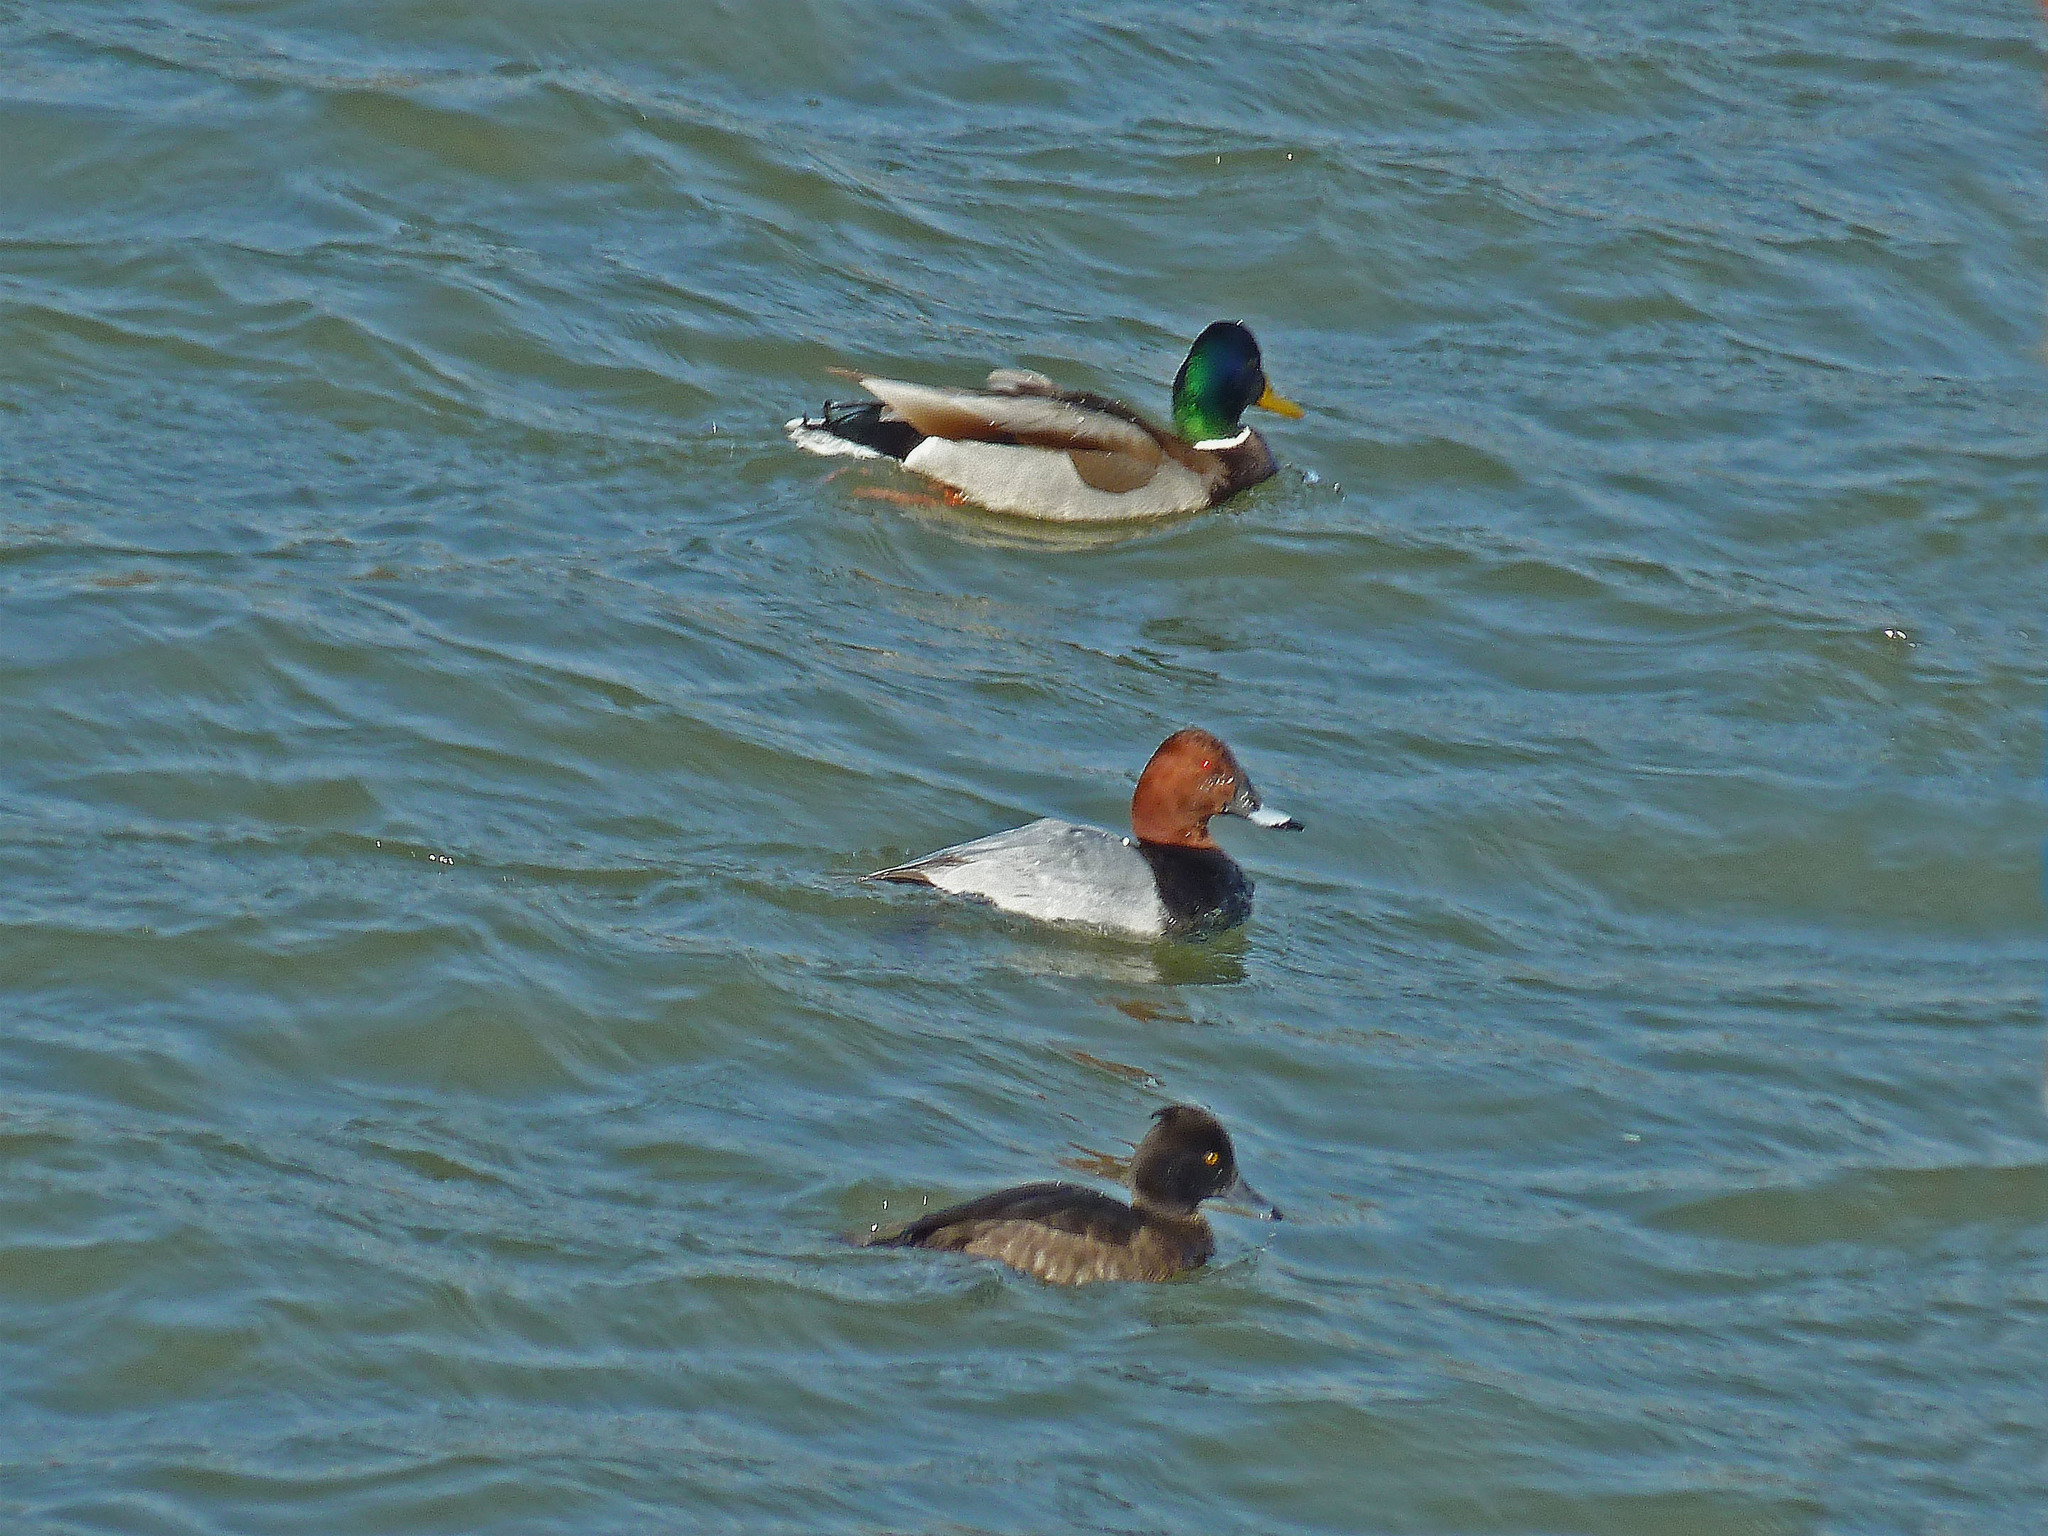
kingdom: Animalia
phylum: Chordata
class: Aves
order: Anseriformes
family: Anatidae
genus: Aythya
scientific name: Aythya ferina
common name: Common pochard
